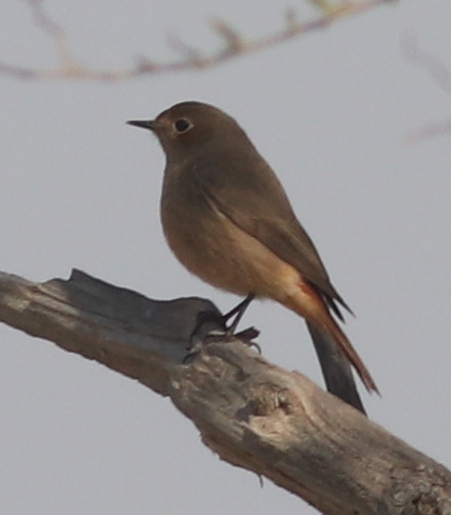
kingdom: Animalia
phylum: Chordata
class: Aves
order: Passeriformes
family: Muscicapidae
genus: Phoenicurus
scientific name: Phoenicurus ochruros
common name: Black redstart
